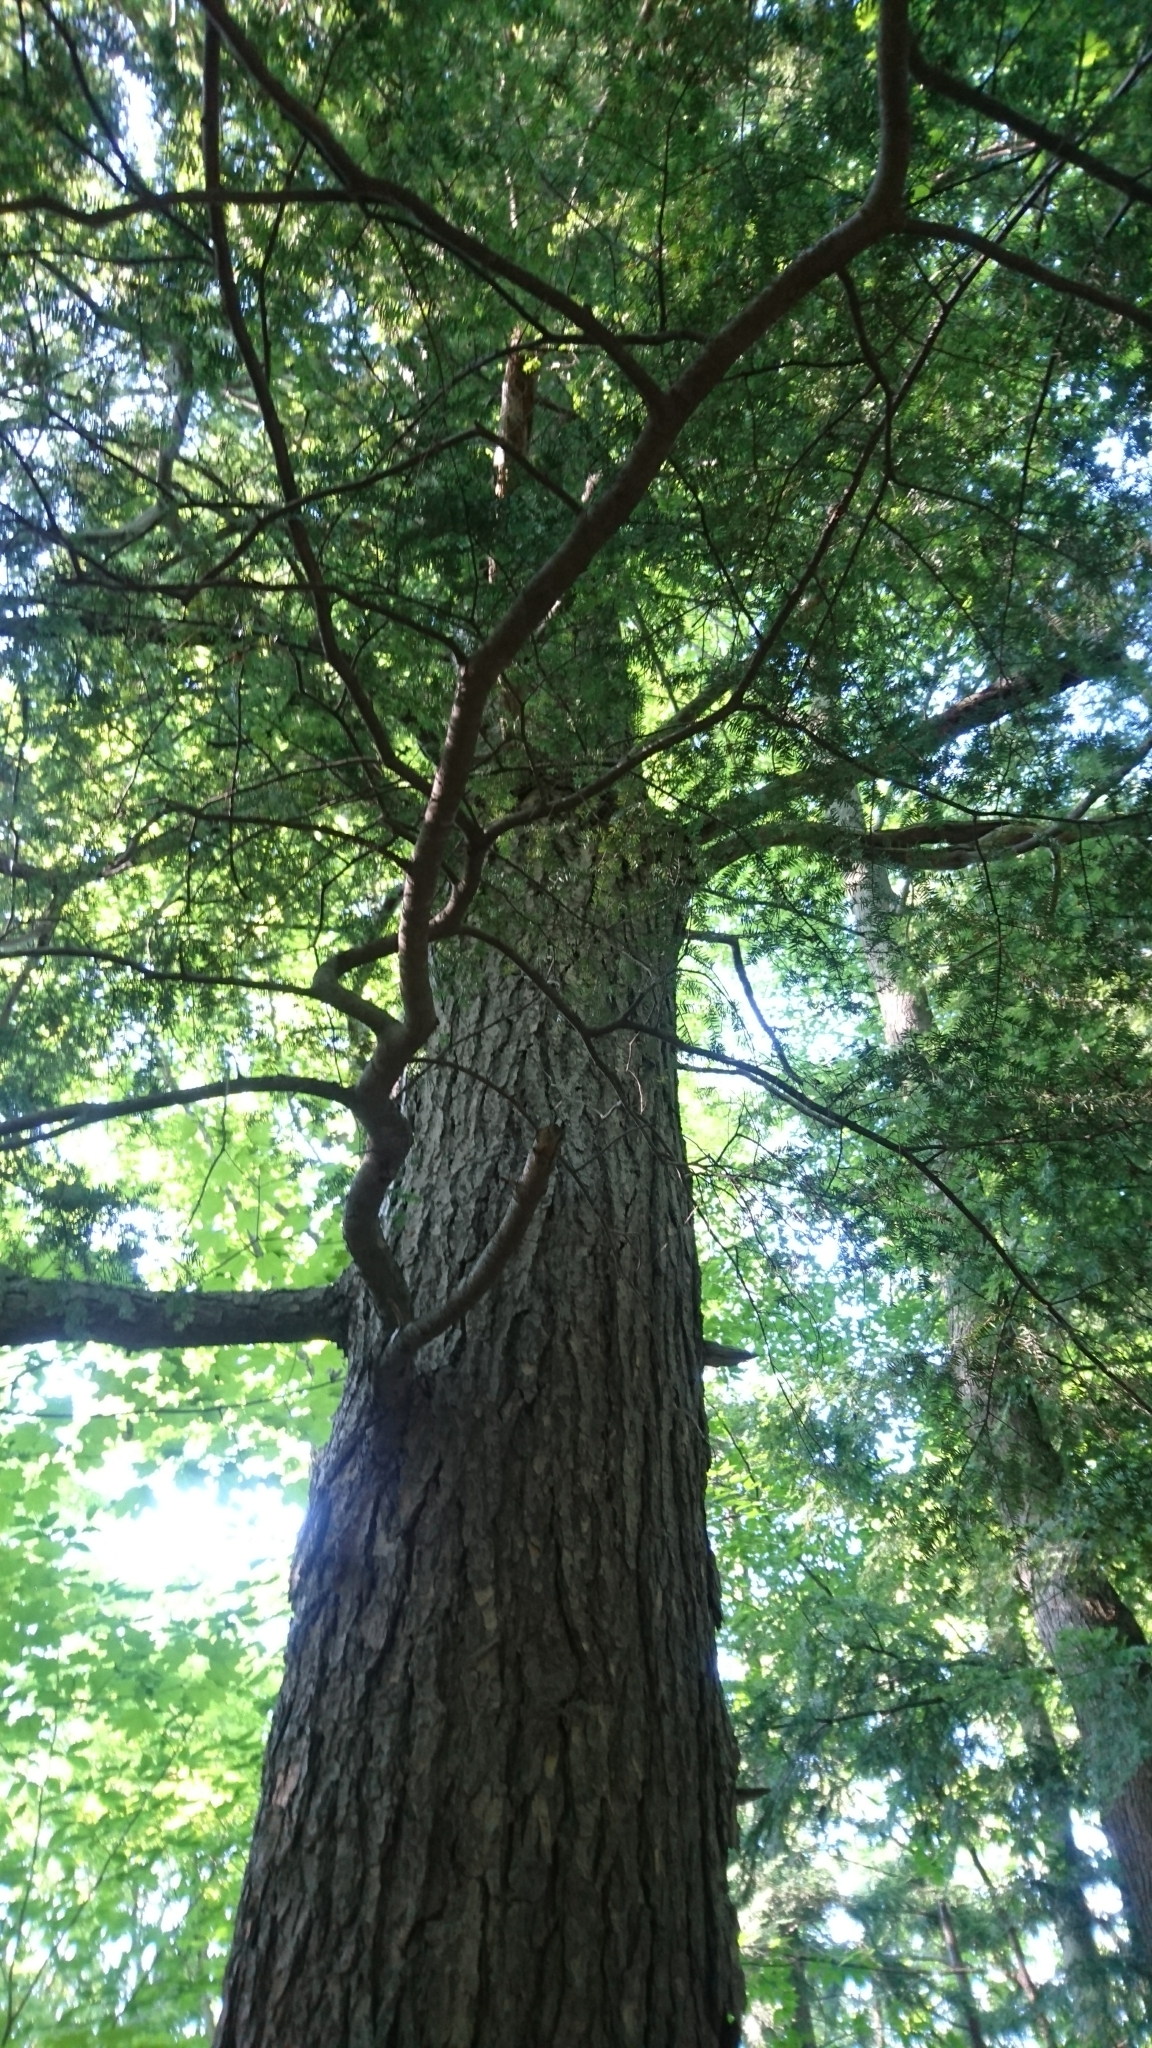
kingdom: Plantae
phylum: Tracheophyta
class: Pinopsida
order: Pinales
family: Pinaceae
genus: Tsuga
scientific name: Tsuga canadensis
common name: Eastern hemlock
